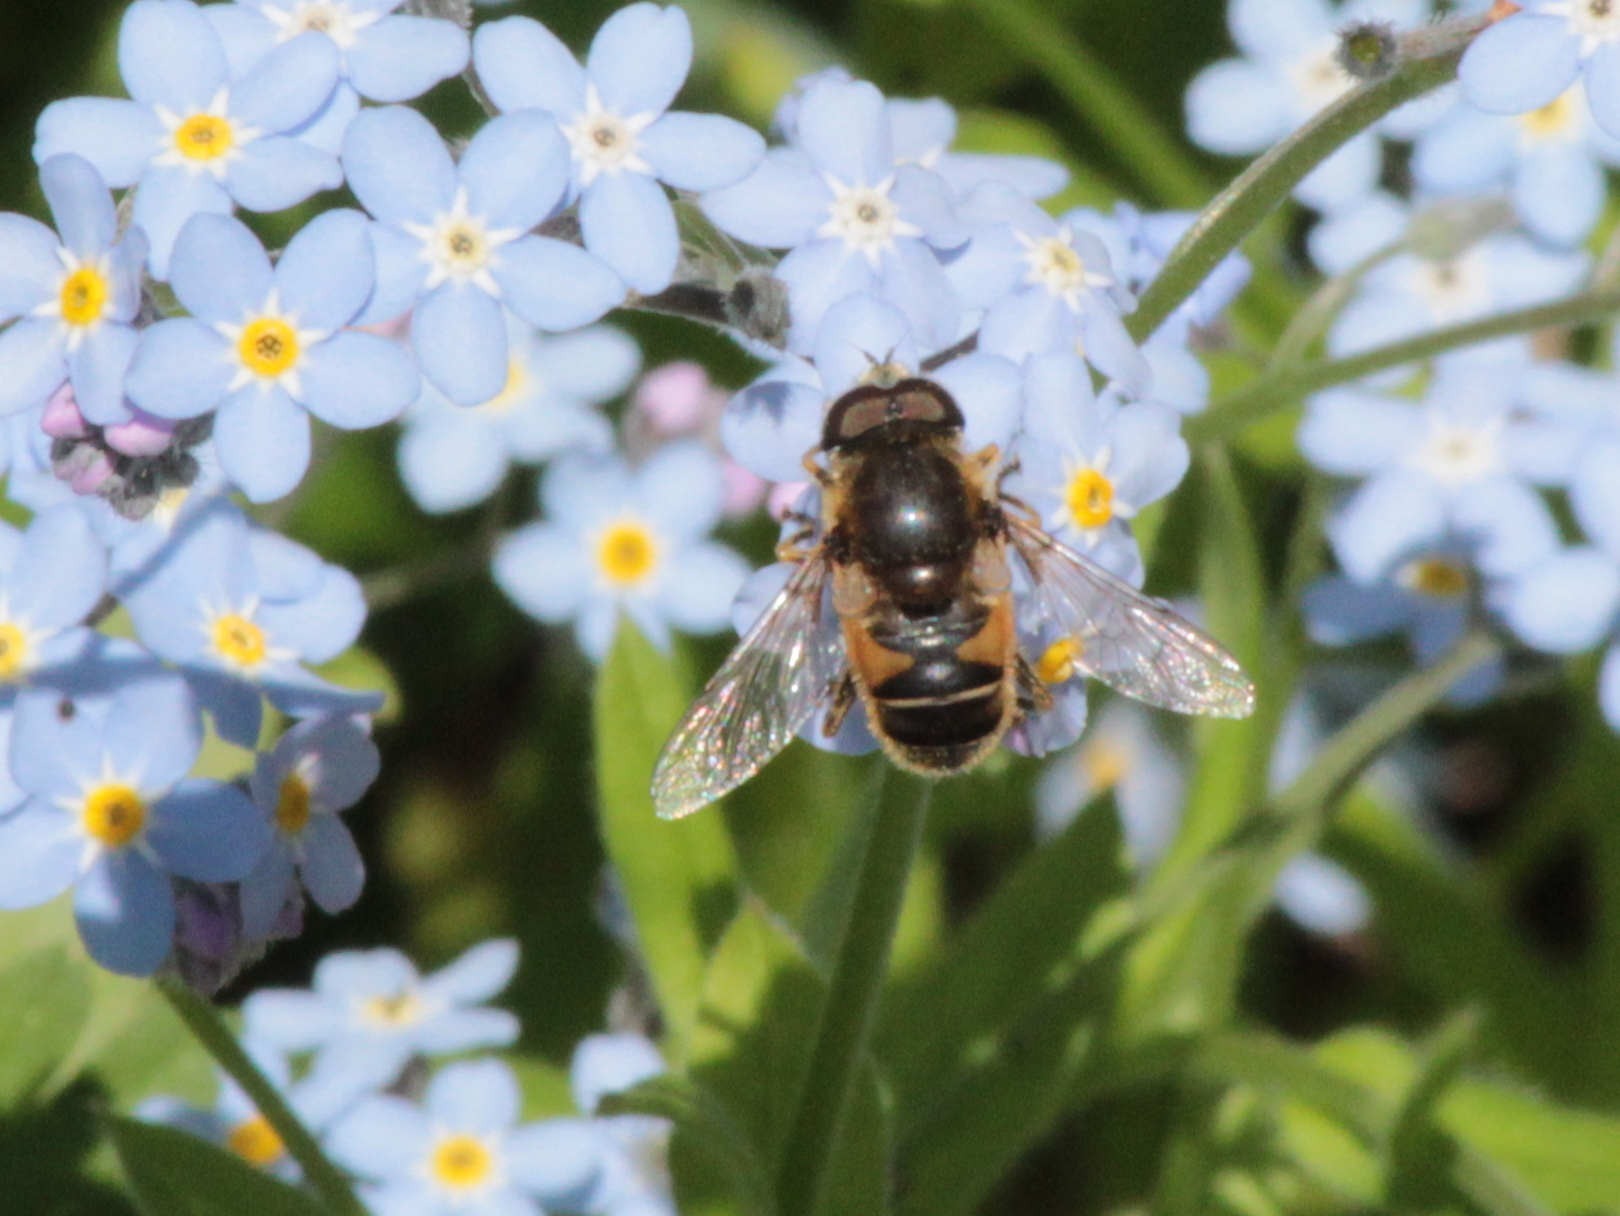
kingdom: Animalia
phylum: Arthropoda
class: Insecta
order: Diptera
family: Syrphidae
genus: Eristalis
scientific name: Eristalis nemorum
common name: Orange-spined drone fly
